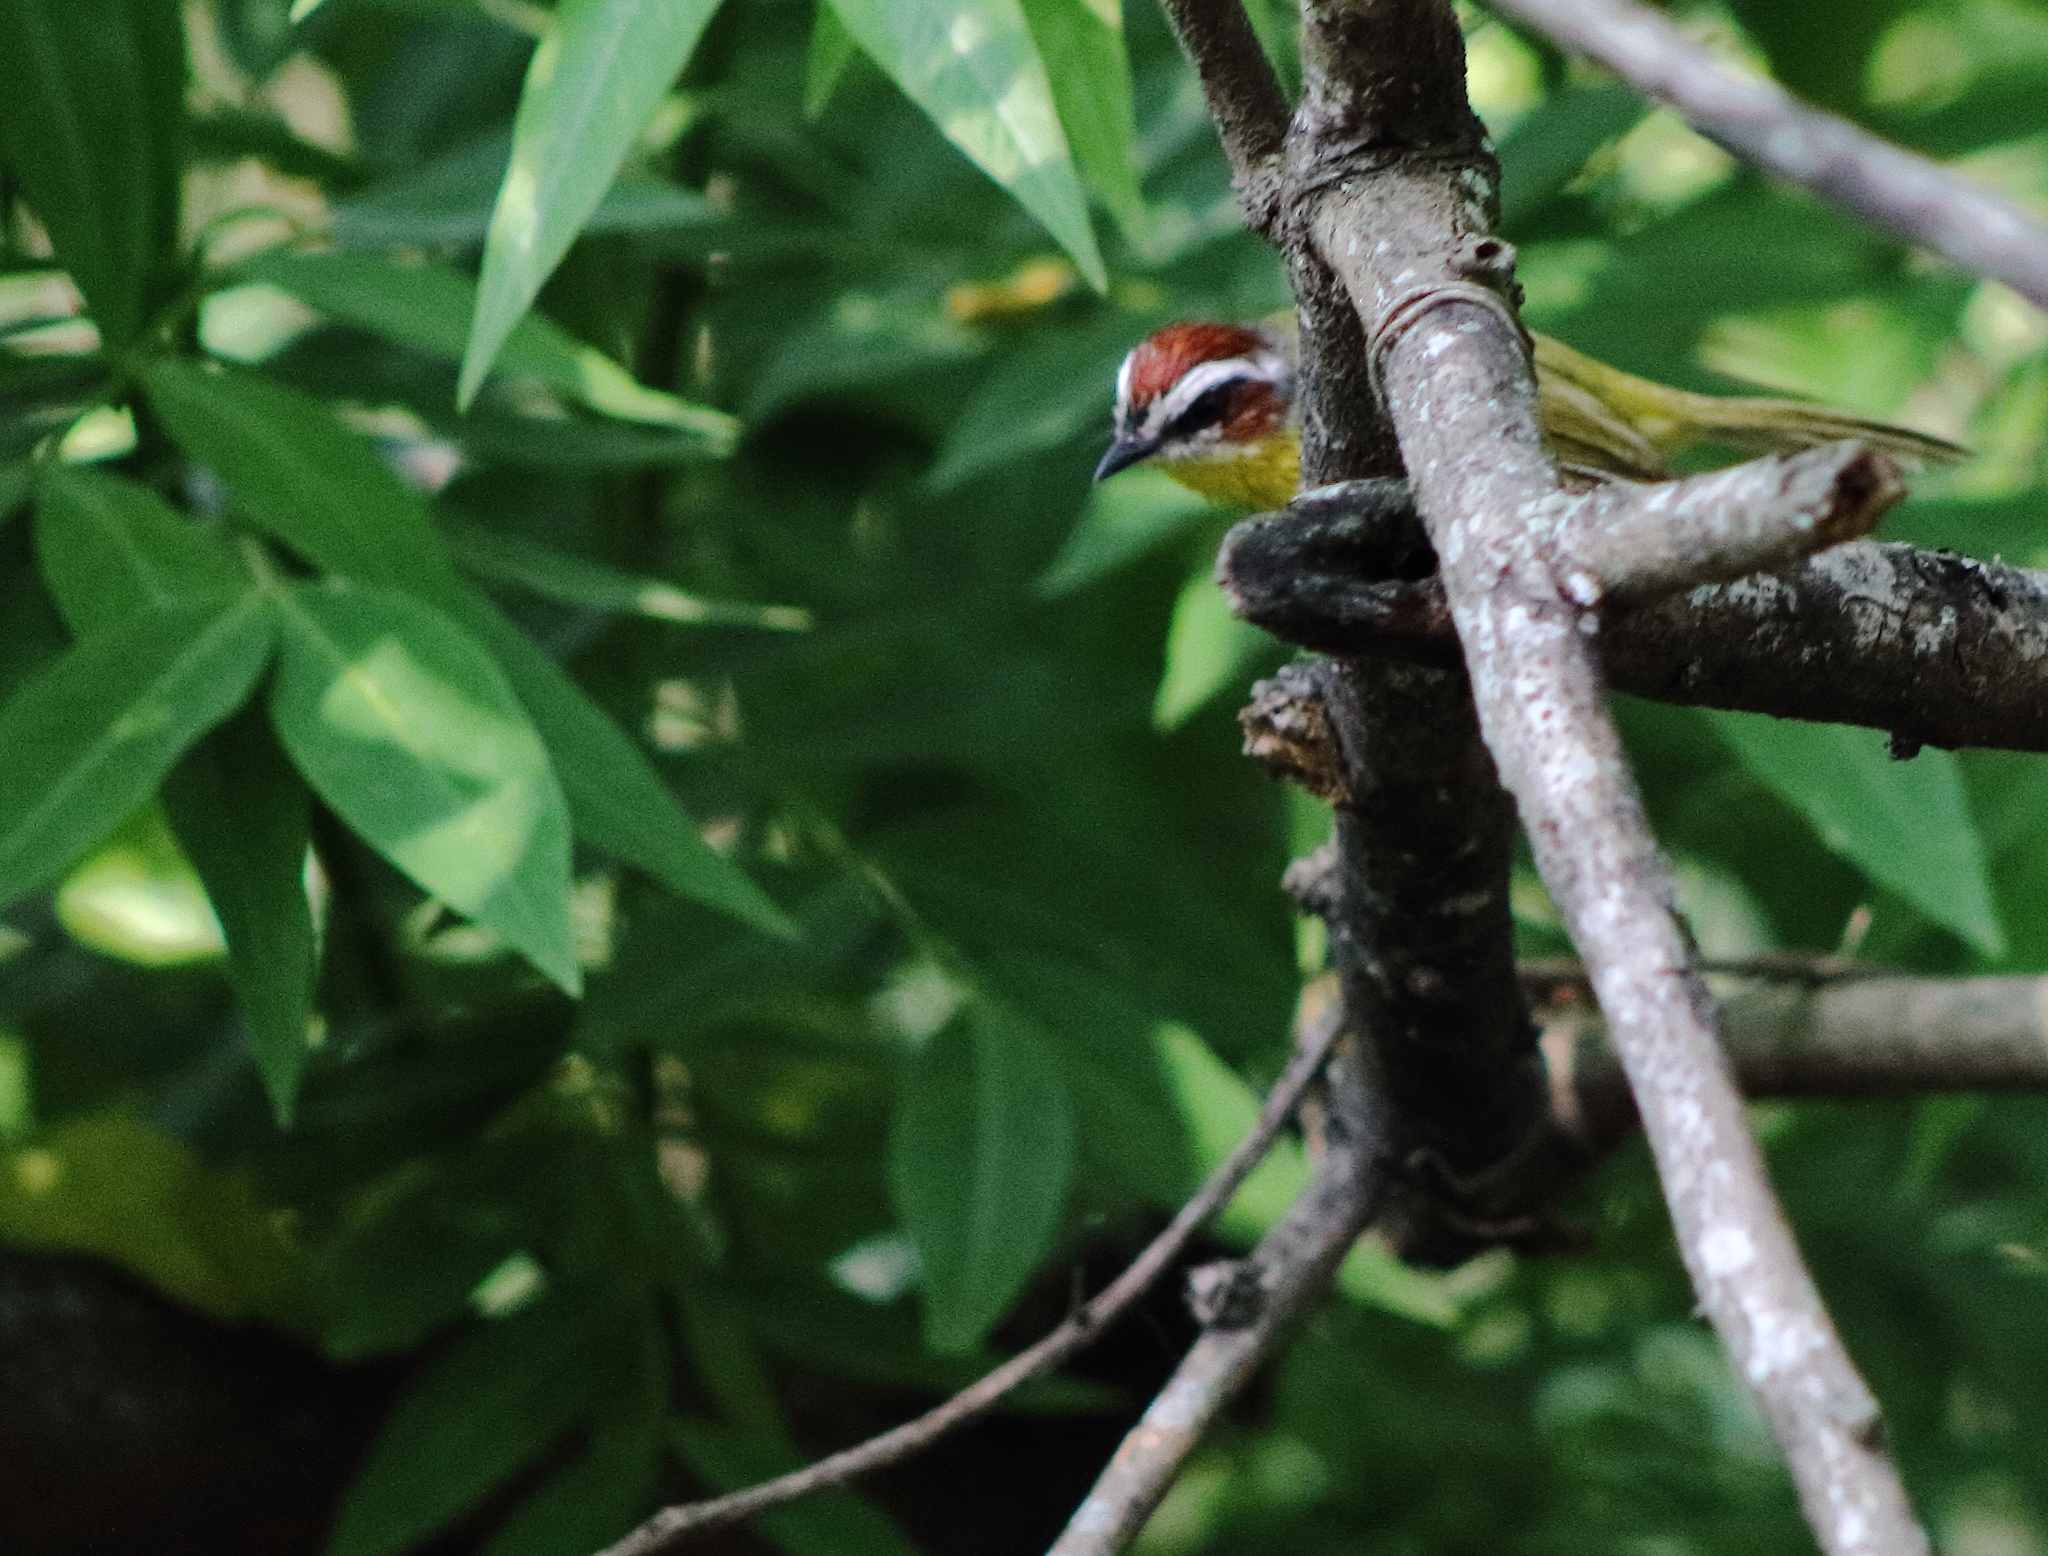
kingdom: Animalia
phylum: Chordata
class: Aves
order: Passeriformes
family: Parulidae
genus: Basileuterus
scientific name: Basileuterus rufifrons
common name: Rufous-capped warbler
